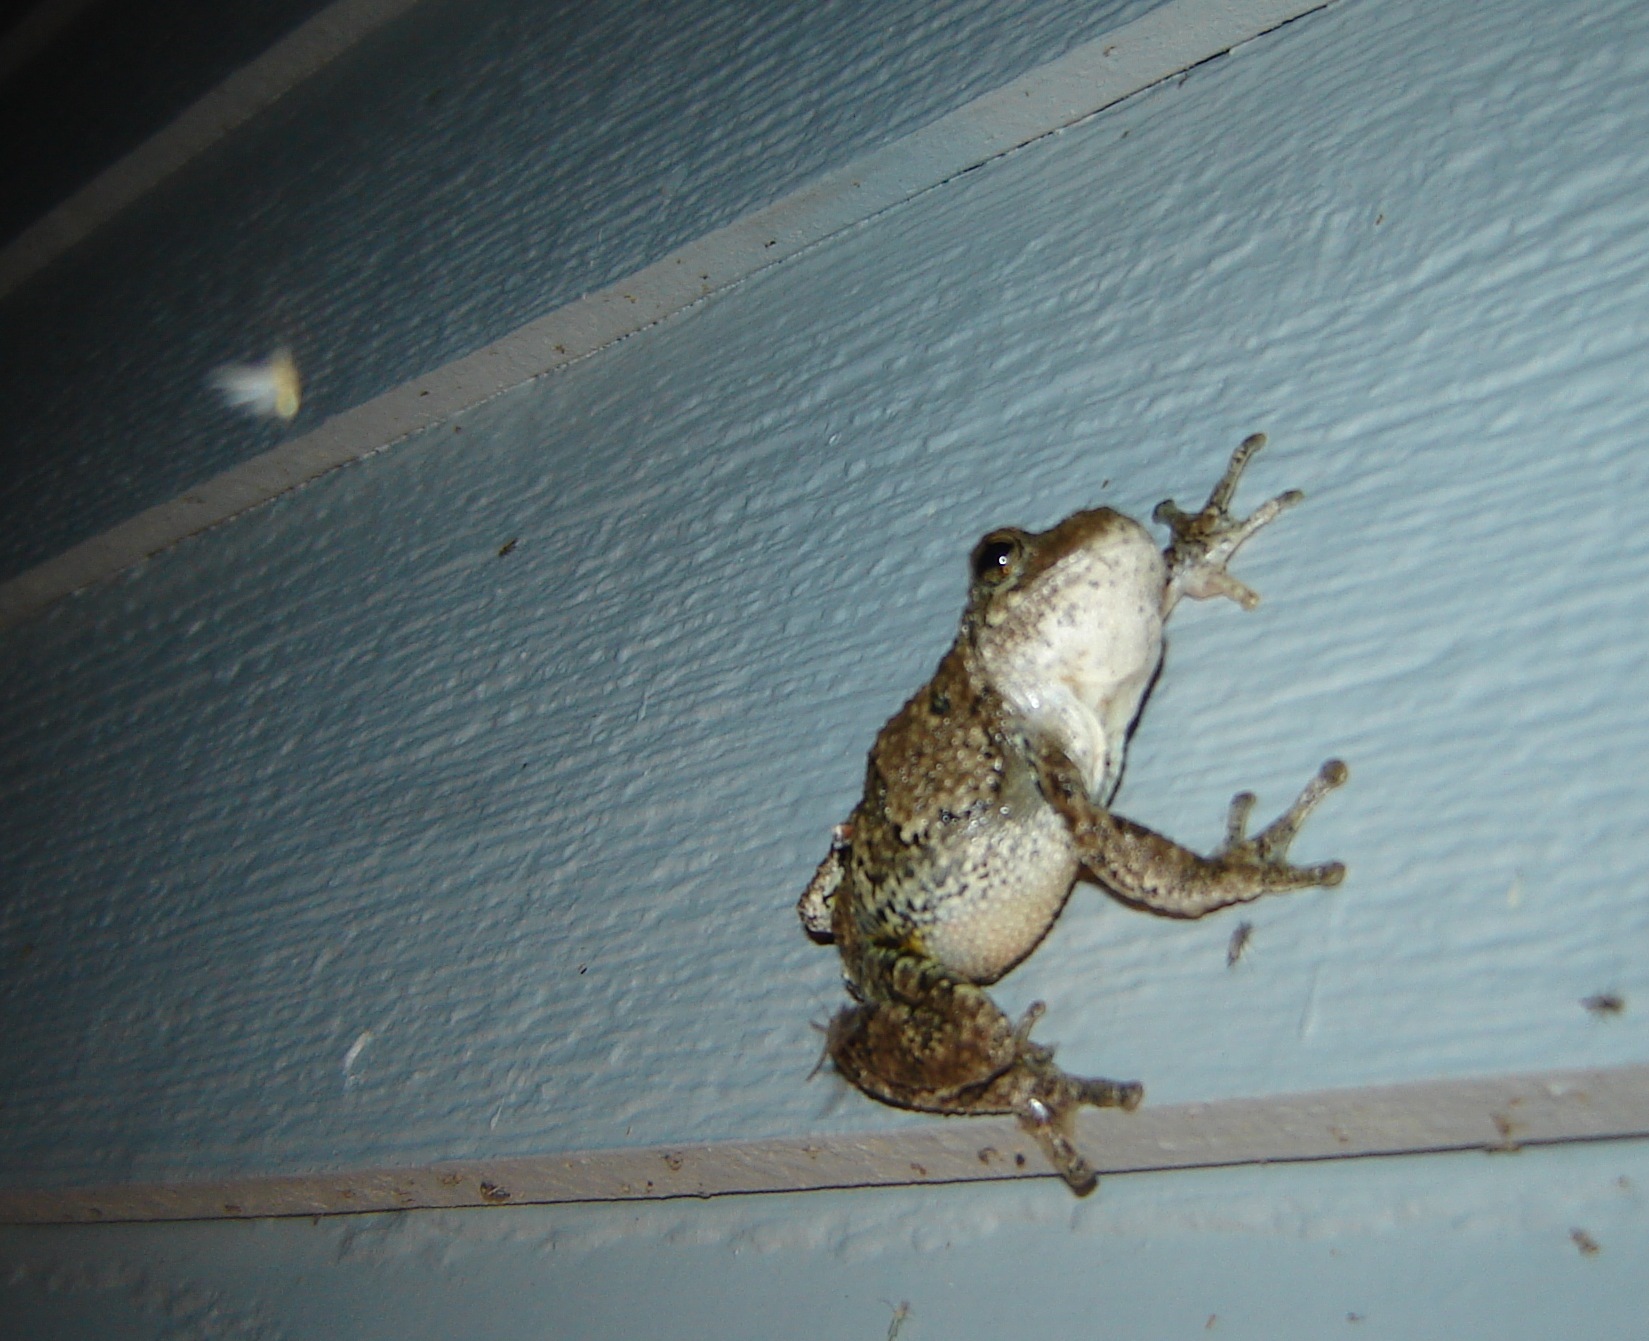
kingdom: Animalia
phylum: Chordata
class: Amphibia
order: Anura
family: Hylidae
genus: Dryophytes
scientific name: Dryophytes versicolor
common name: Gray treefrog
